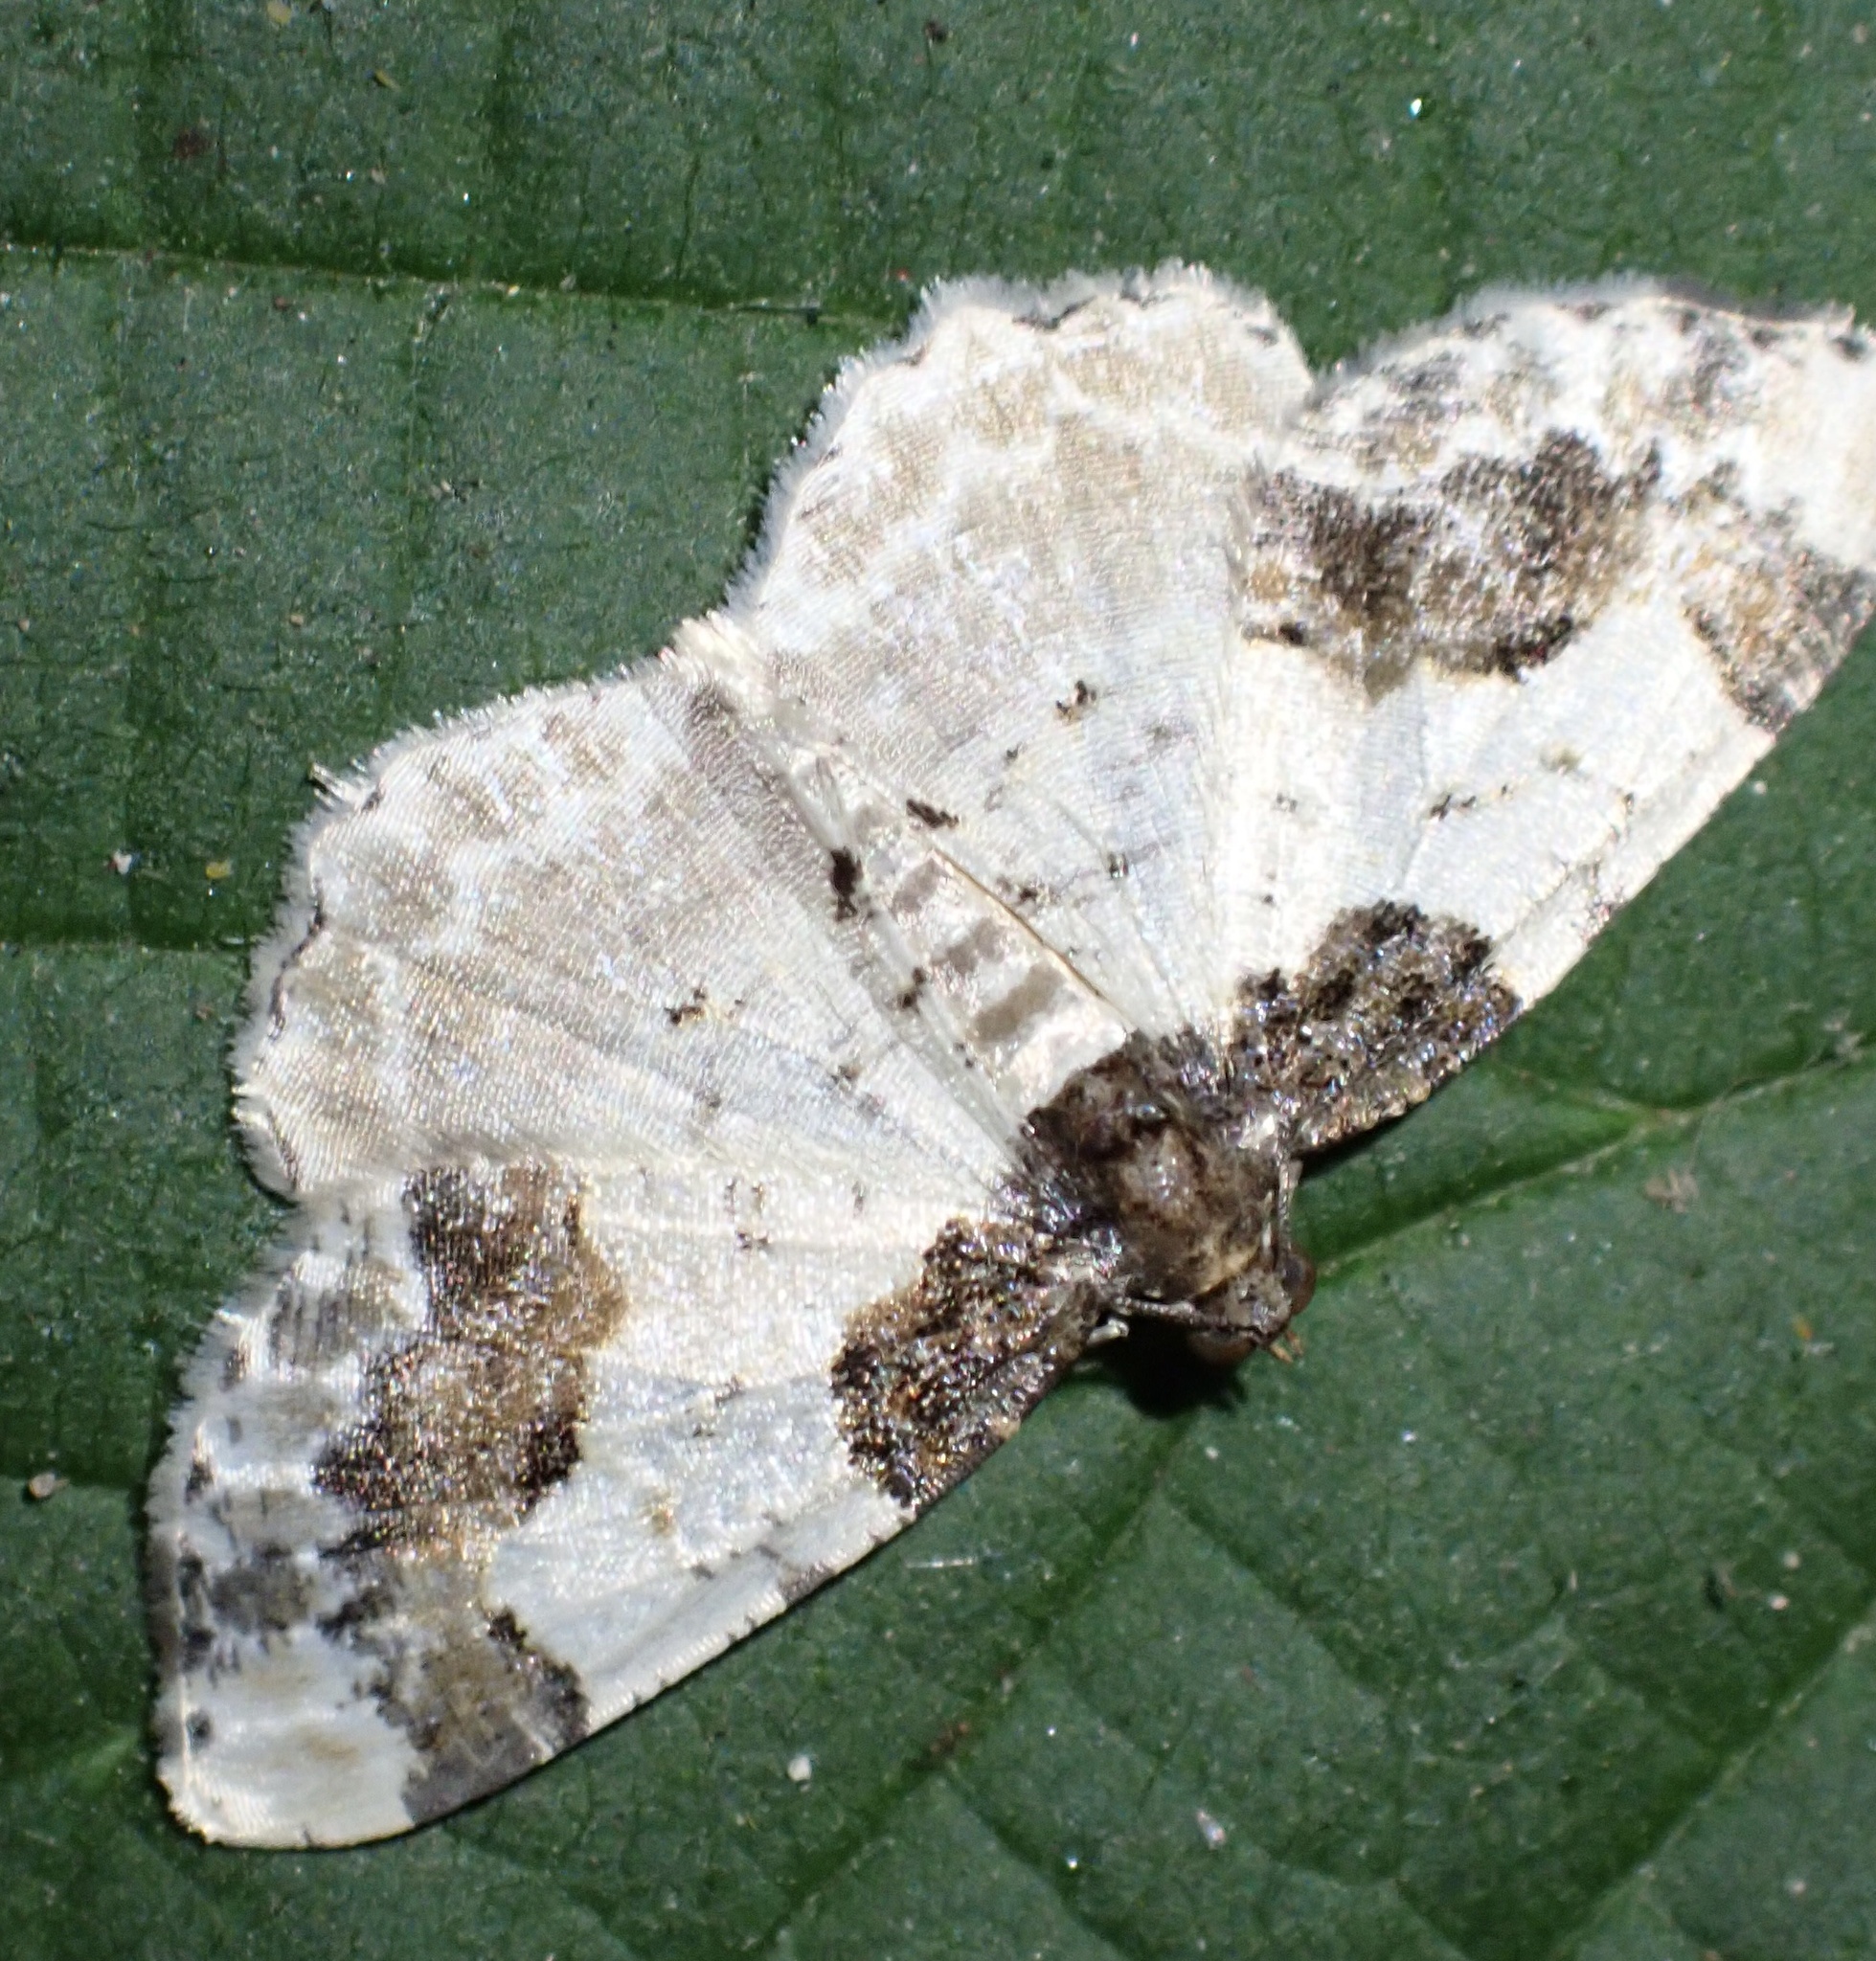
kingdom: Animalia
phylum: Arthropoda
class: Insecta
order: Lepidoptera
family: Geometridae
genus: Ligdia
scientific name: Ligdia adustata
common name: Scorched carpet
